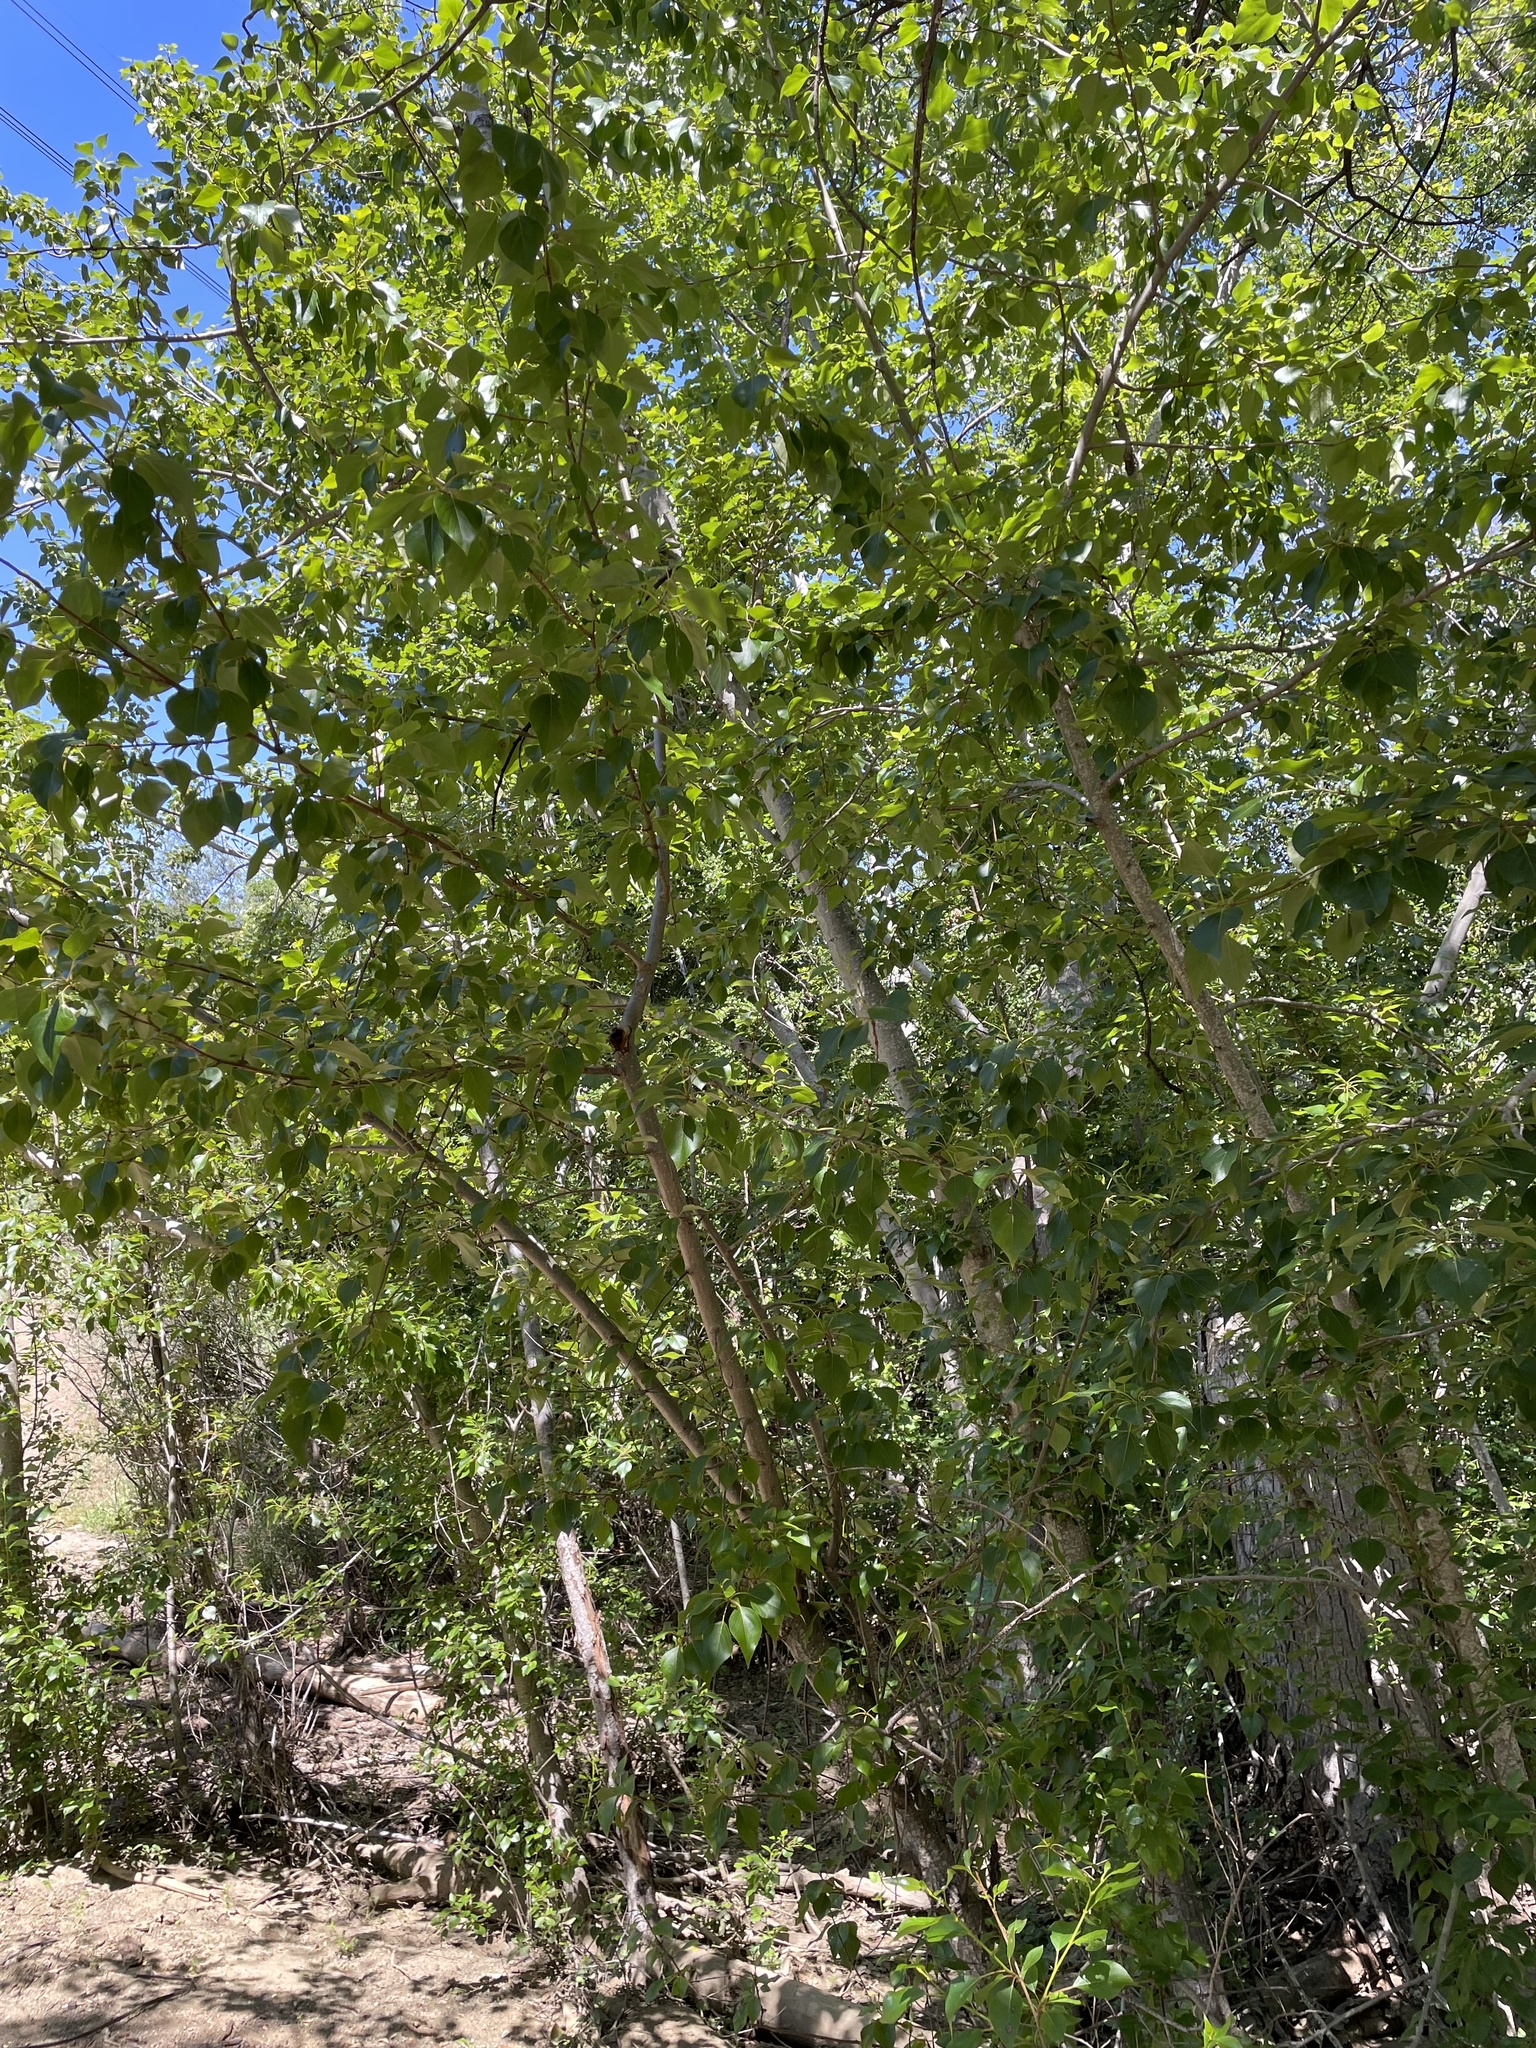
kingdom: Plantae
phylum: Tracheophyta
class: Magnoliopsida
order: Malpighiales
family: Salicaceae
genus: Populus
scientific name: Populus trichocarpa
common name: Black cottonwood
